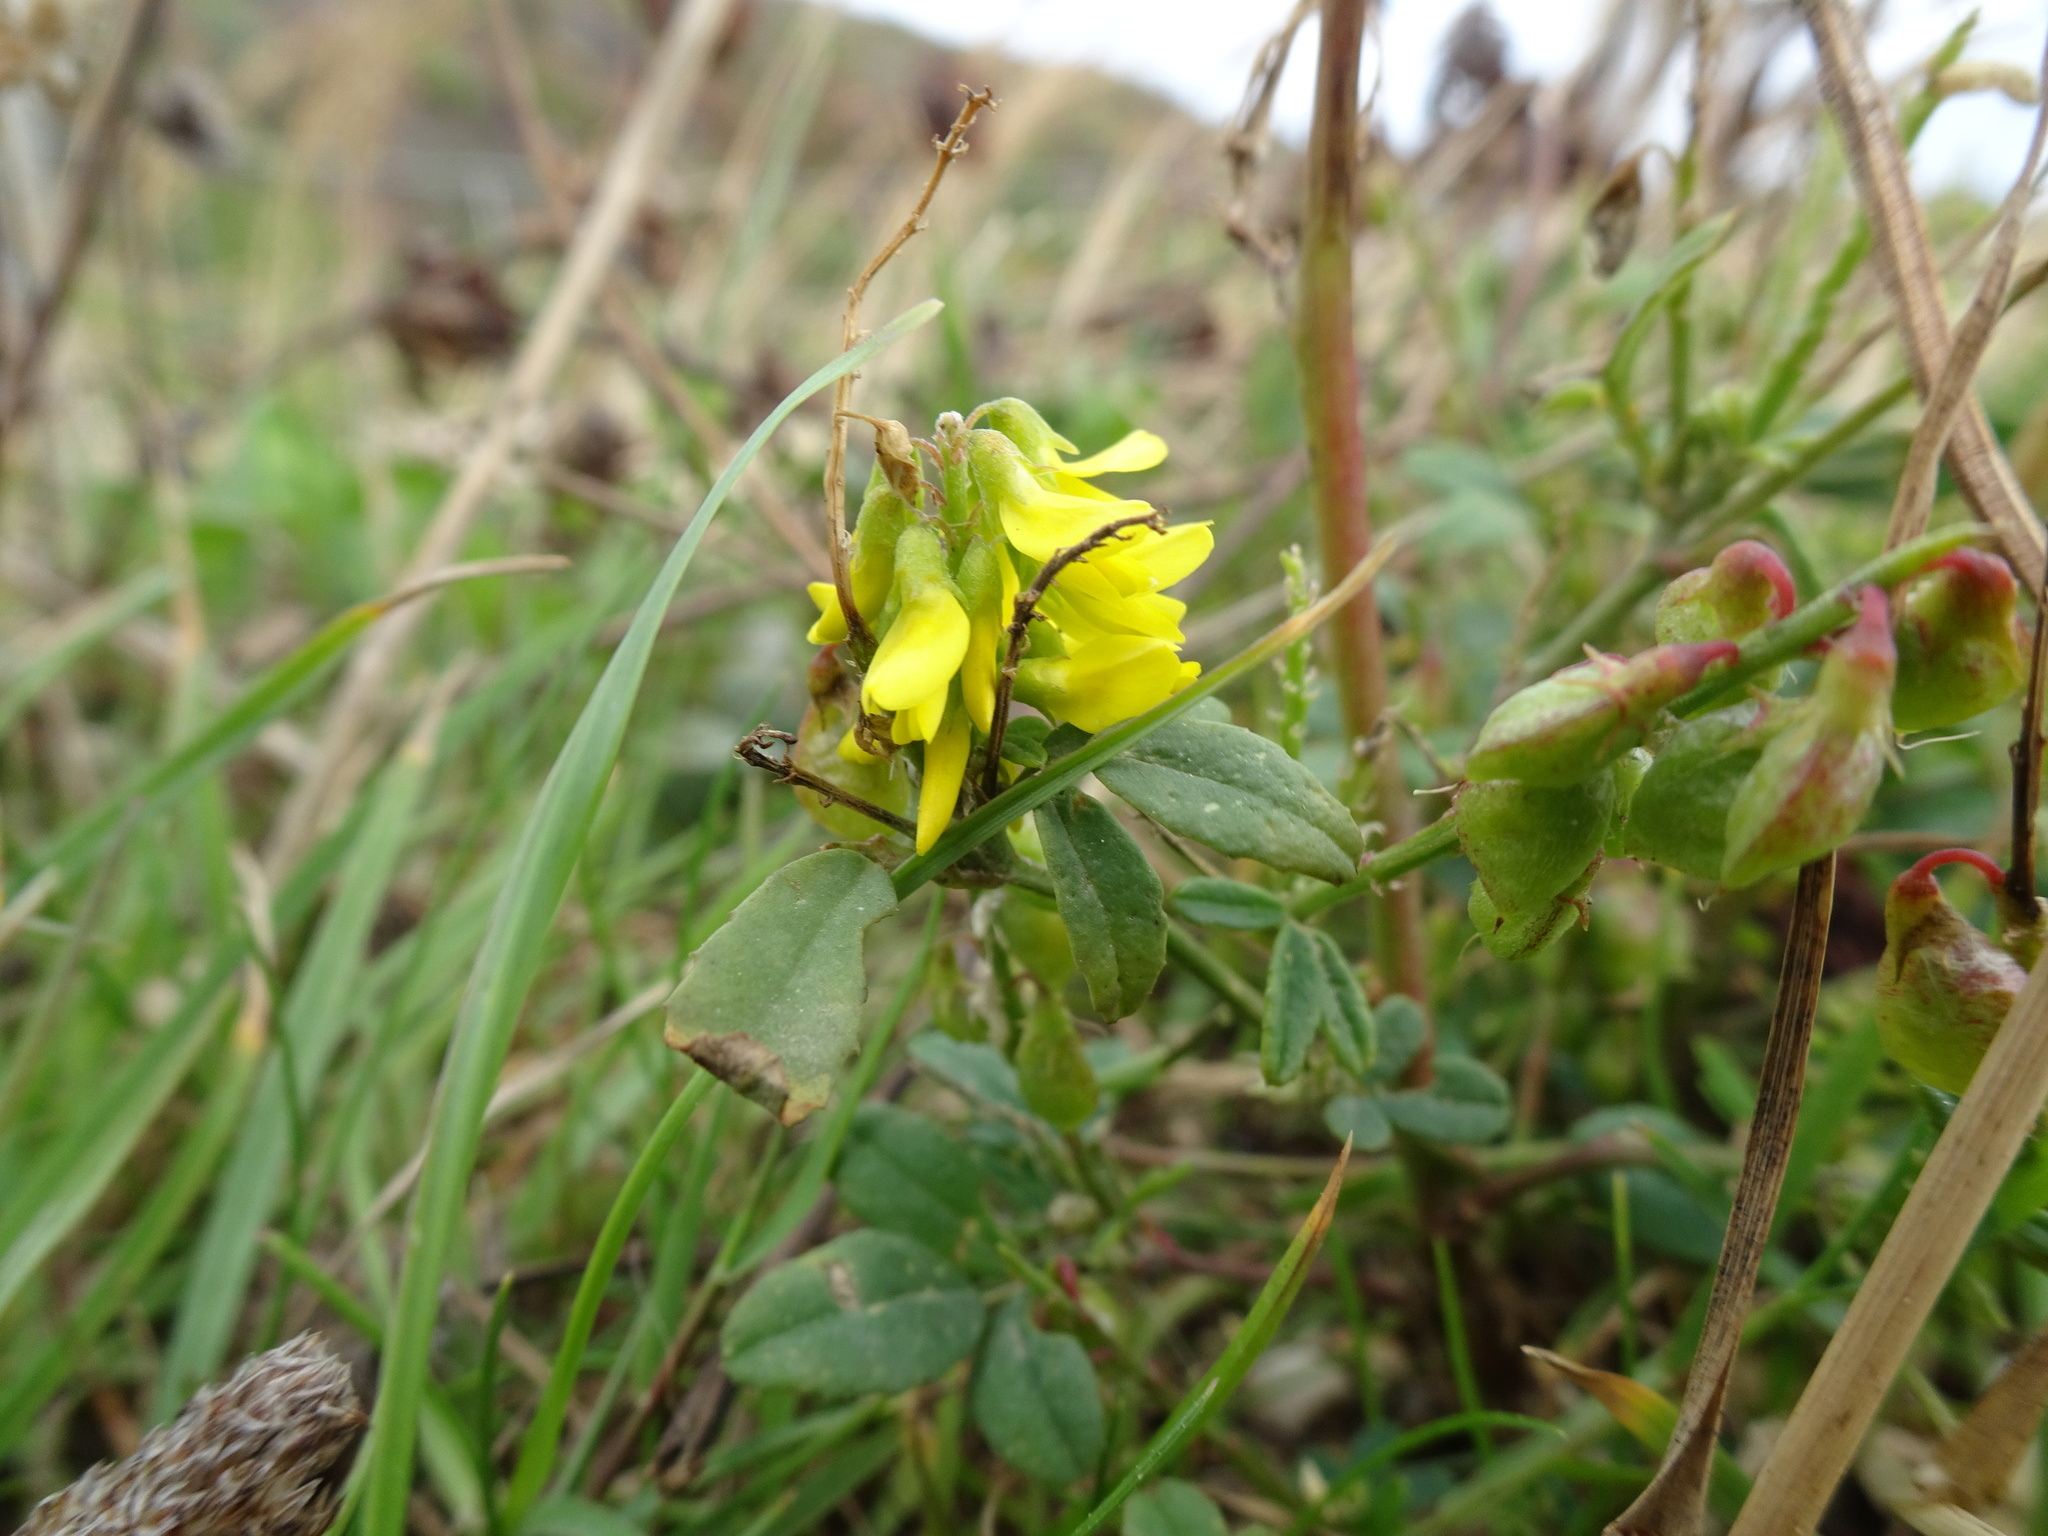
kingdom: Plantae
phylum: Tracheophyta
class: Magnoliopsida
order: Fabales
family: Fabaceae
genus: Melilotus
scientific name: Melilotus altissimus
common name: Tall melilot
